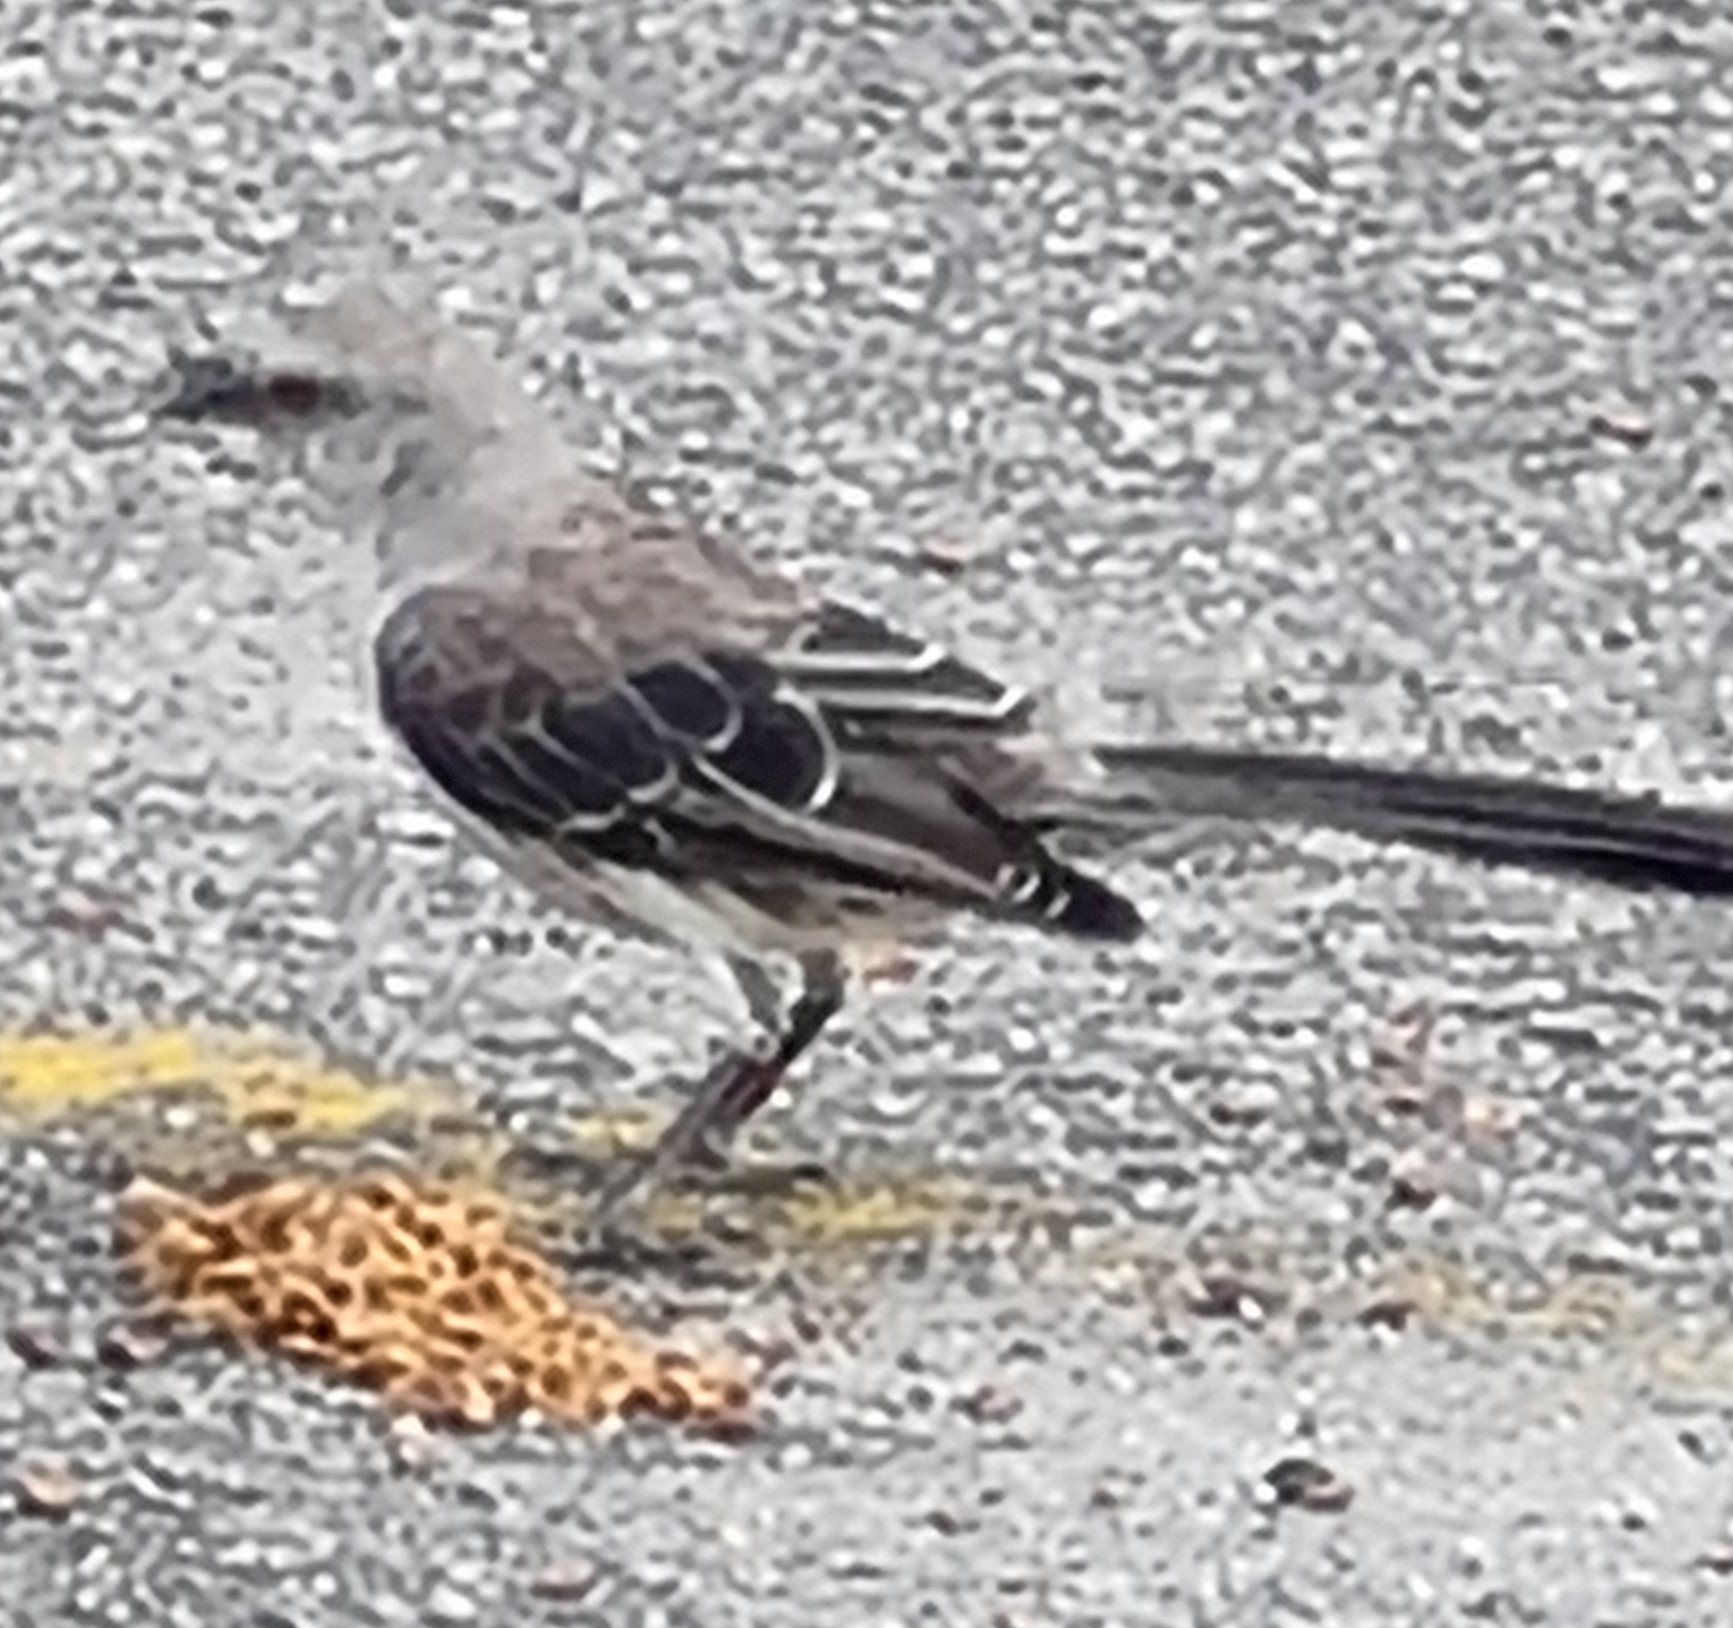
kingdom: Animalia
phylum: Chordata
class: Aves
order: Passeriformes
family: Mimidae
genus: Mimus
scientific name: Mimus gilvus
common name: Tropical mockingbird
